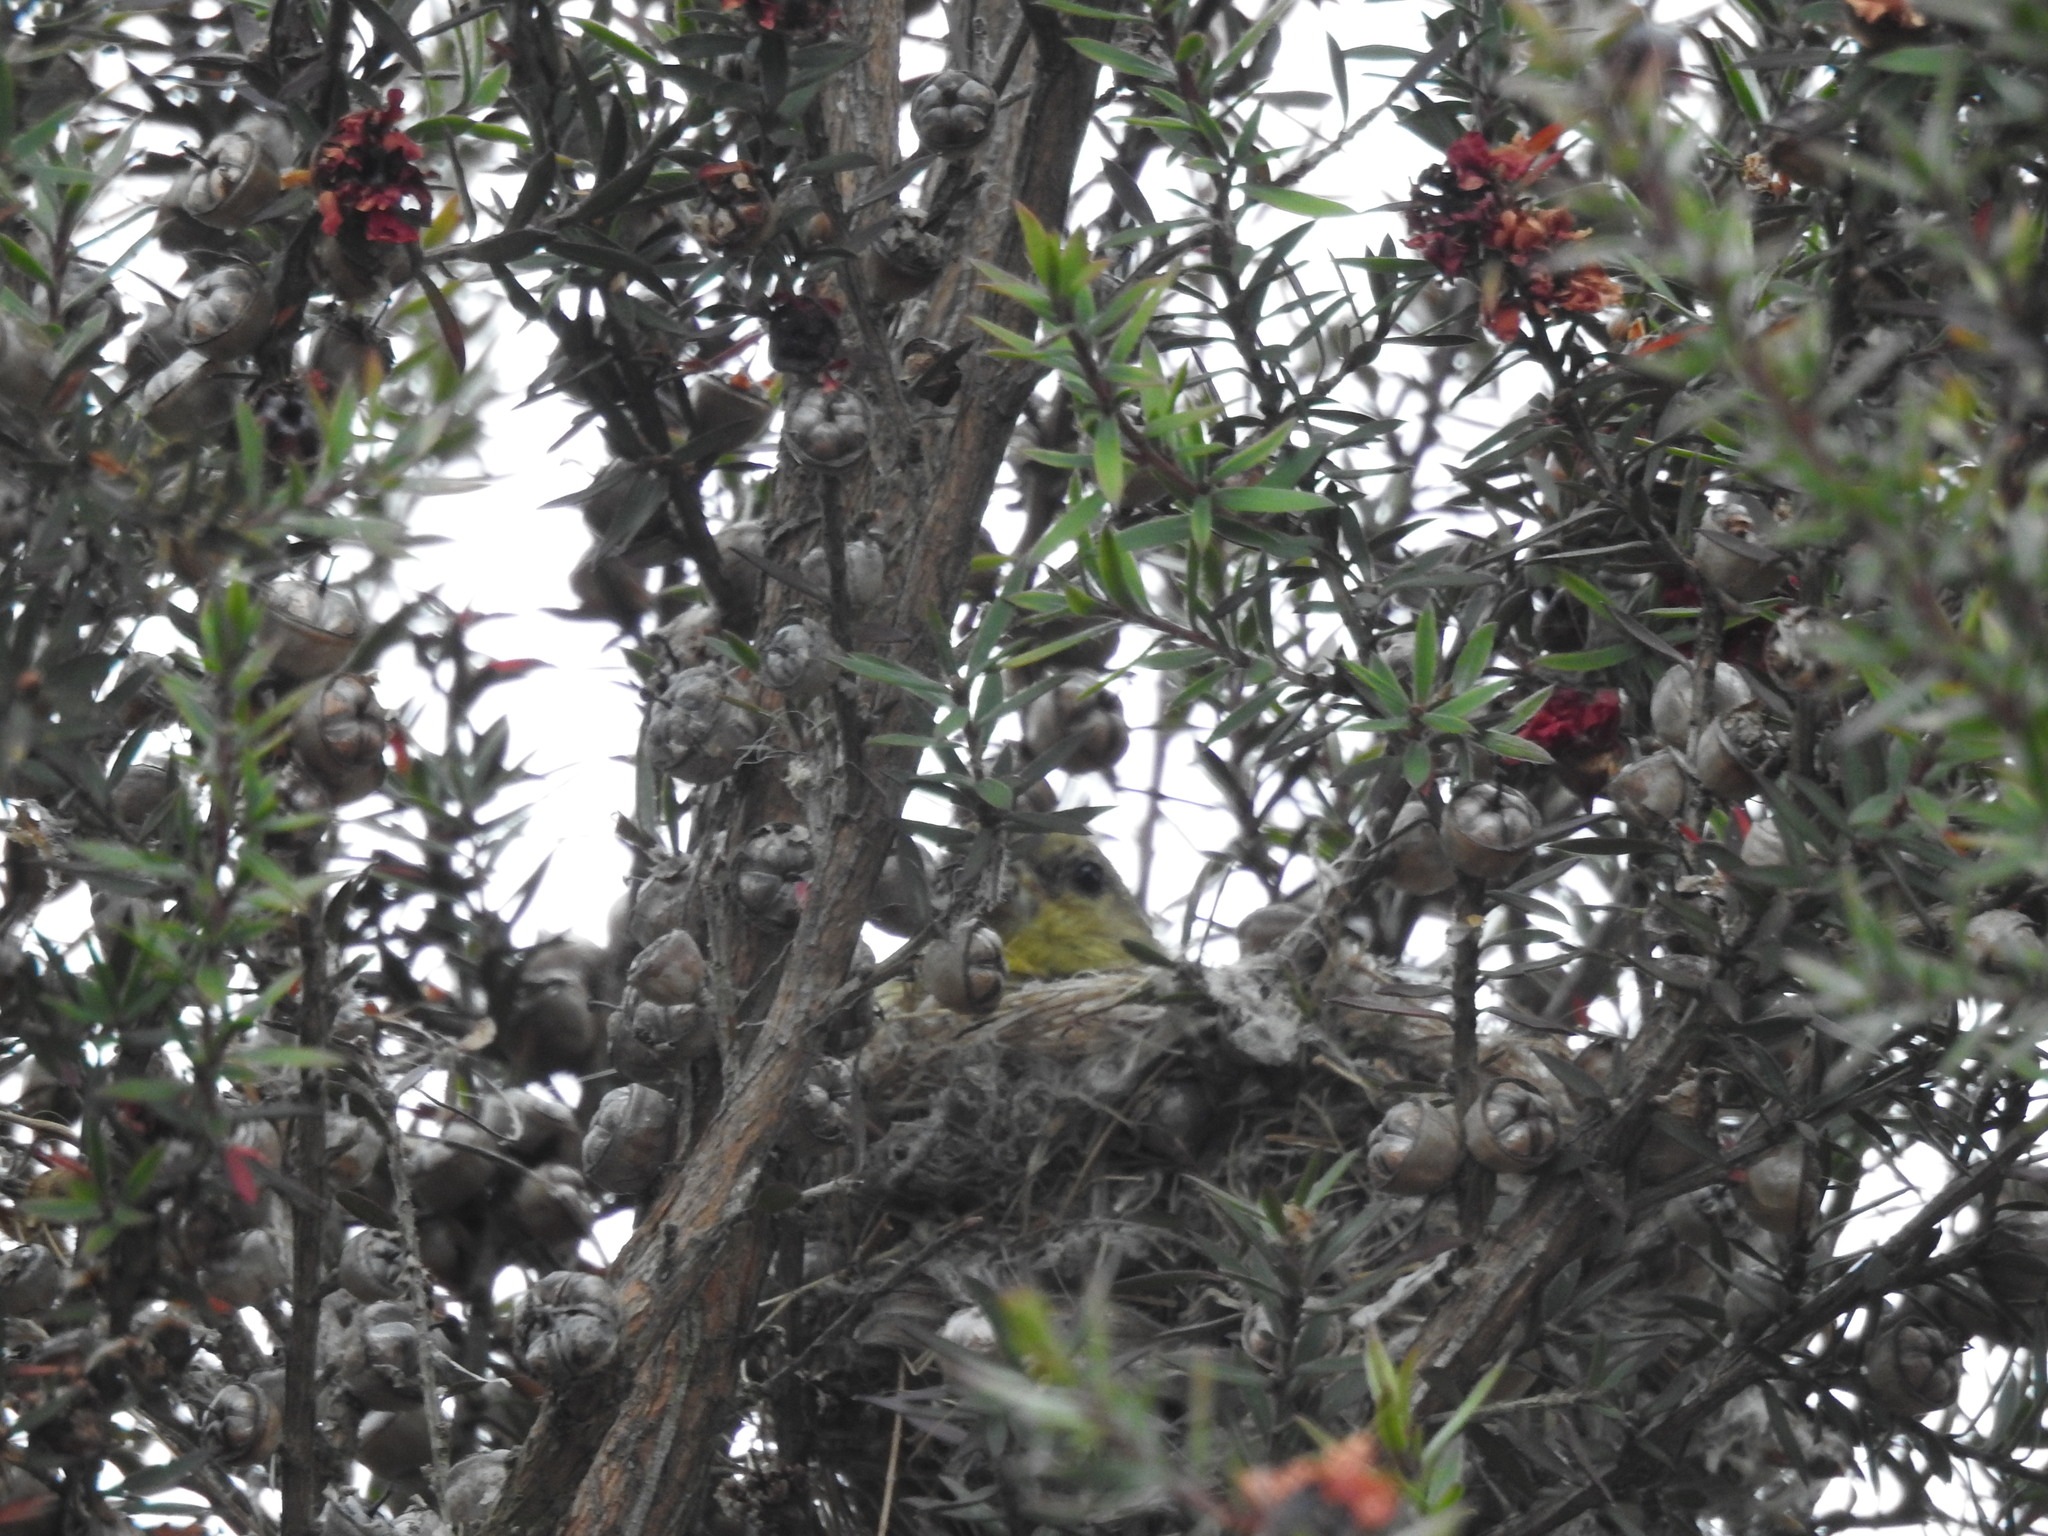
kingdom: Animalia
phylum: Chordata
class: Aves
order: Passeriformes
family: Fringillidae
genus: Spinus
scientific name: Spinus psaltria
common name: Lesser goldfinch
